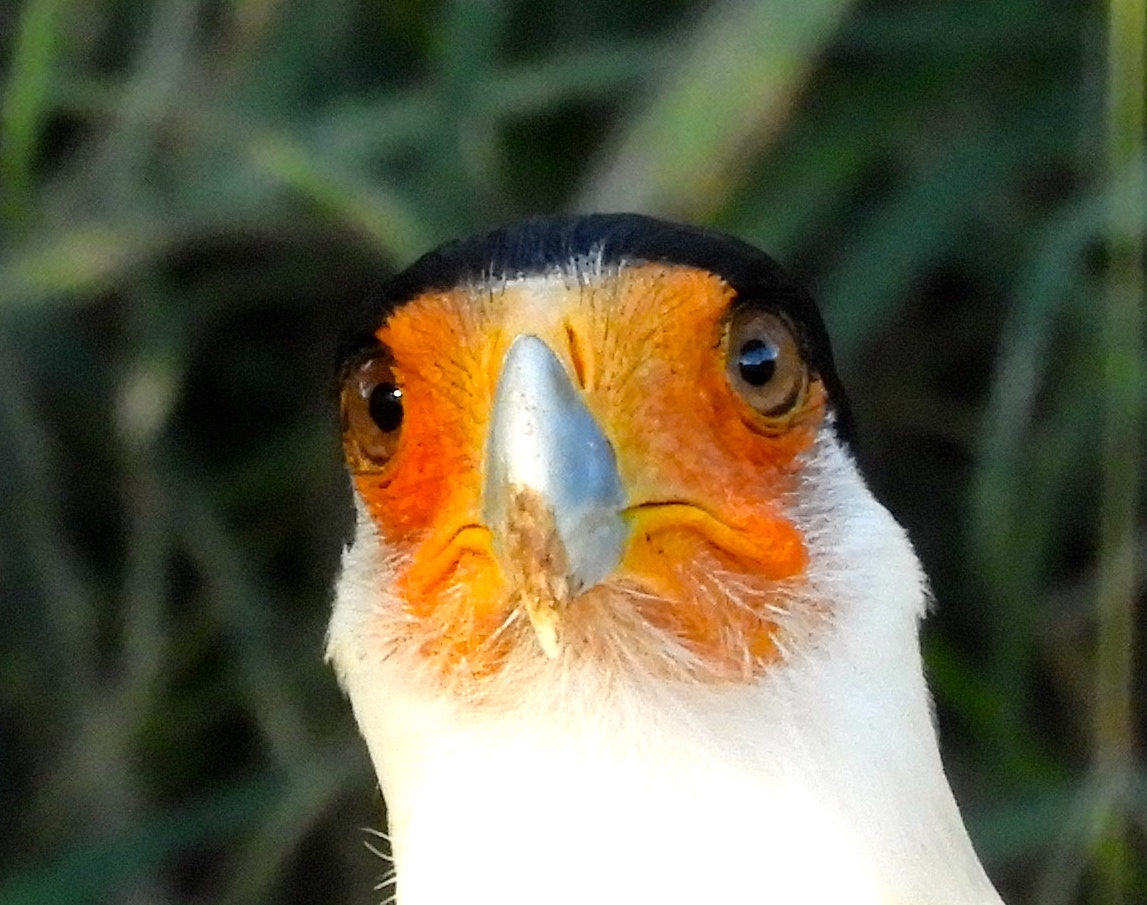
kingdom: Animalia
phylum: Chordata
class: Aves
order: Falconiformes
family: Falconidae
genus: Caracara
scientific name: Caracara plancus
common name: Southern caracara
